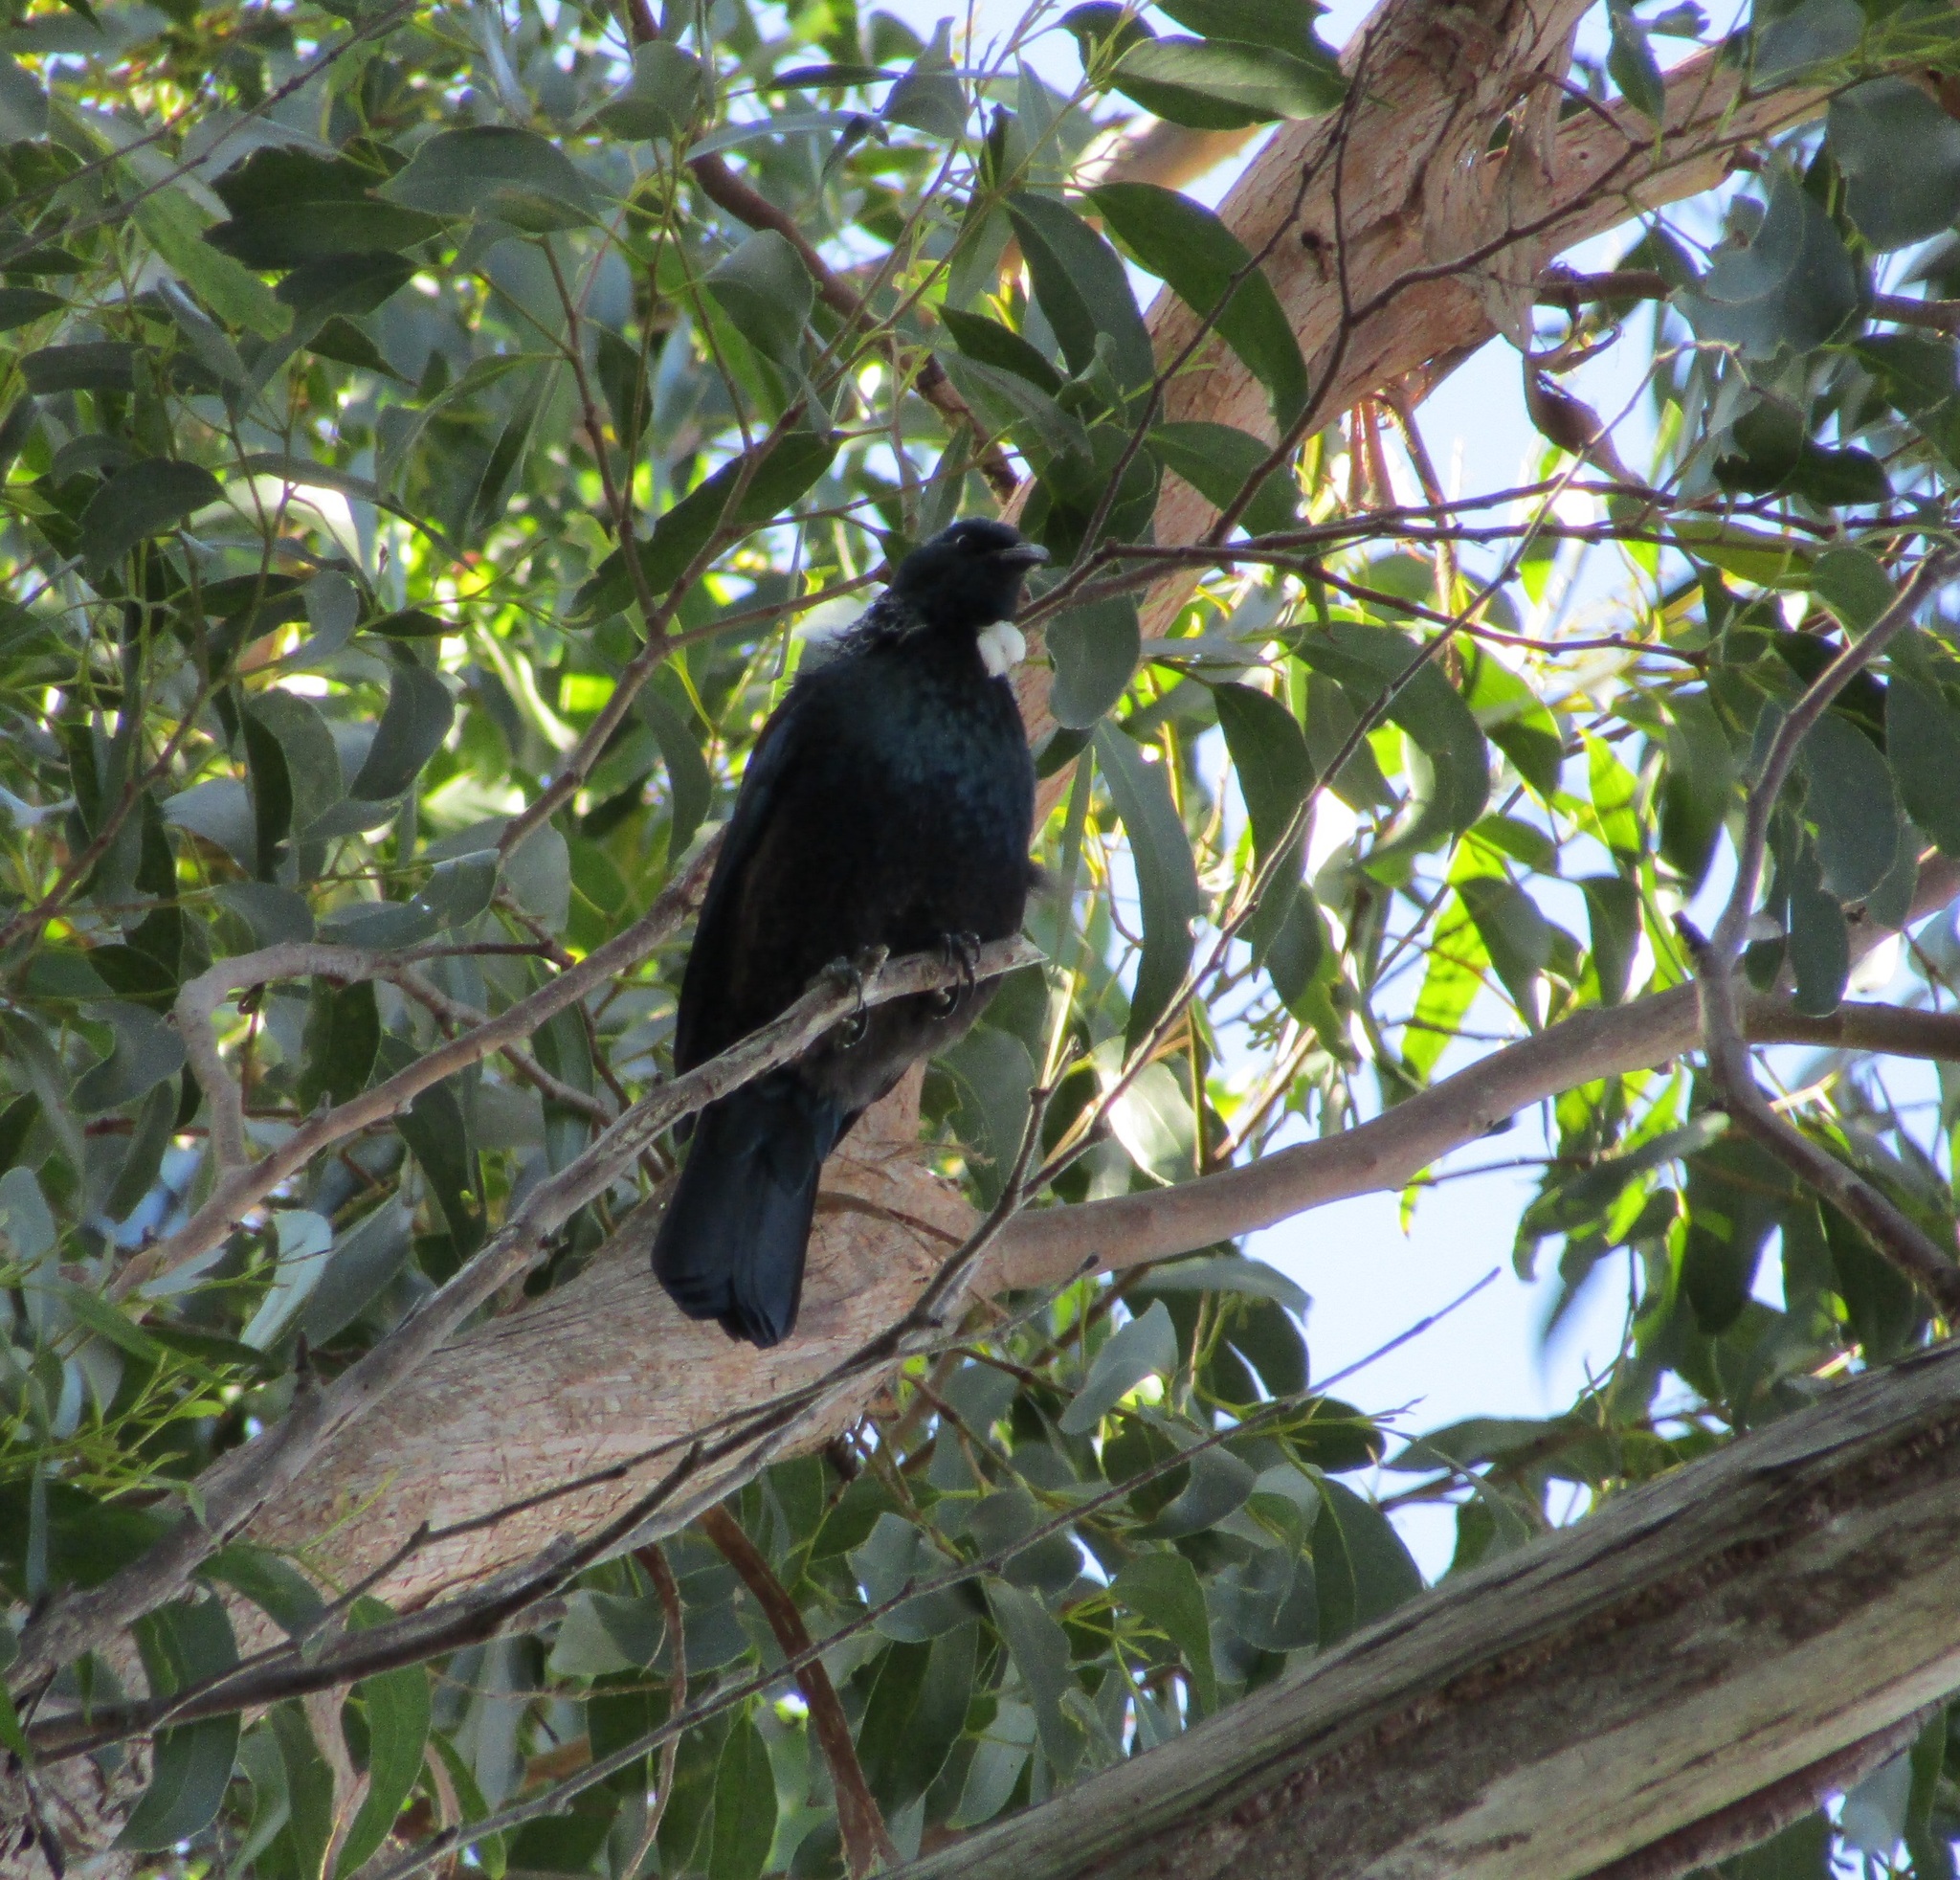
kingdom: Animalia
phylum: Chordata
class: Aves
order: Passeriformes
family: Meliphagidae
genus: Prosthemadera
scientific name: Prosthemadera novaeseelandiae
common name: Tui
